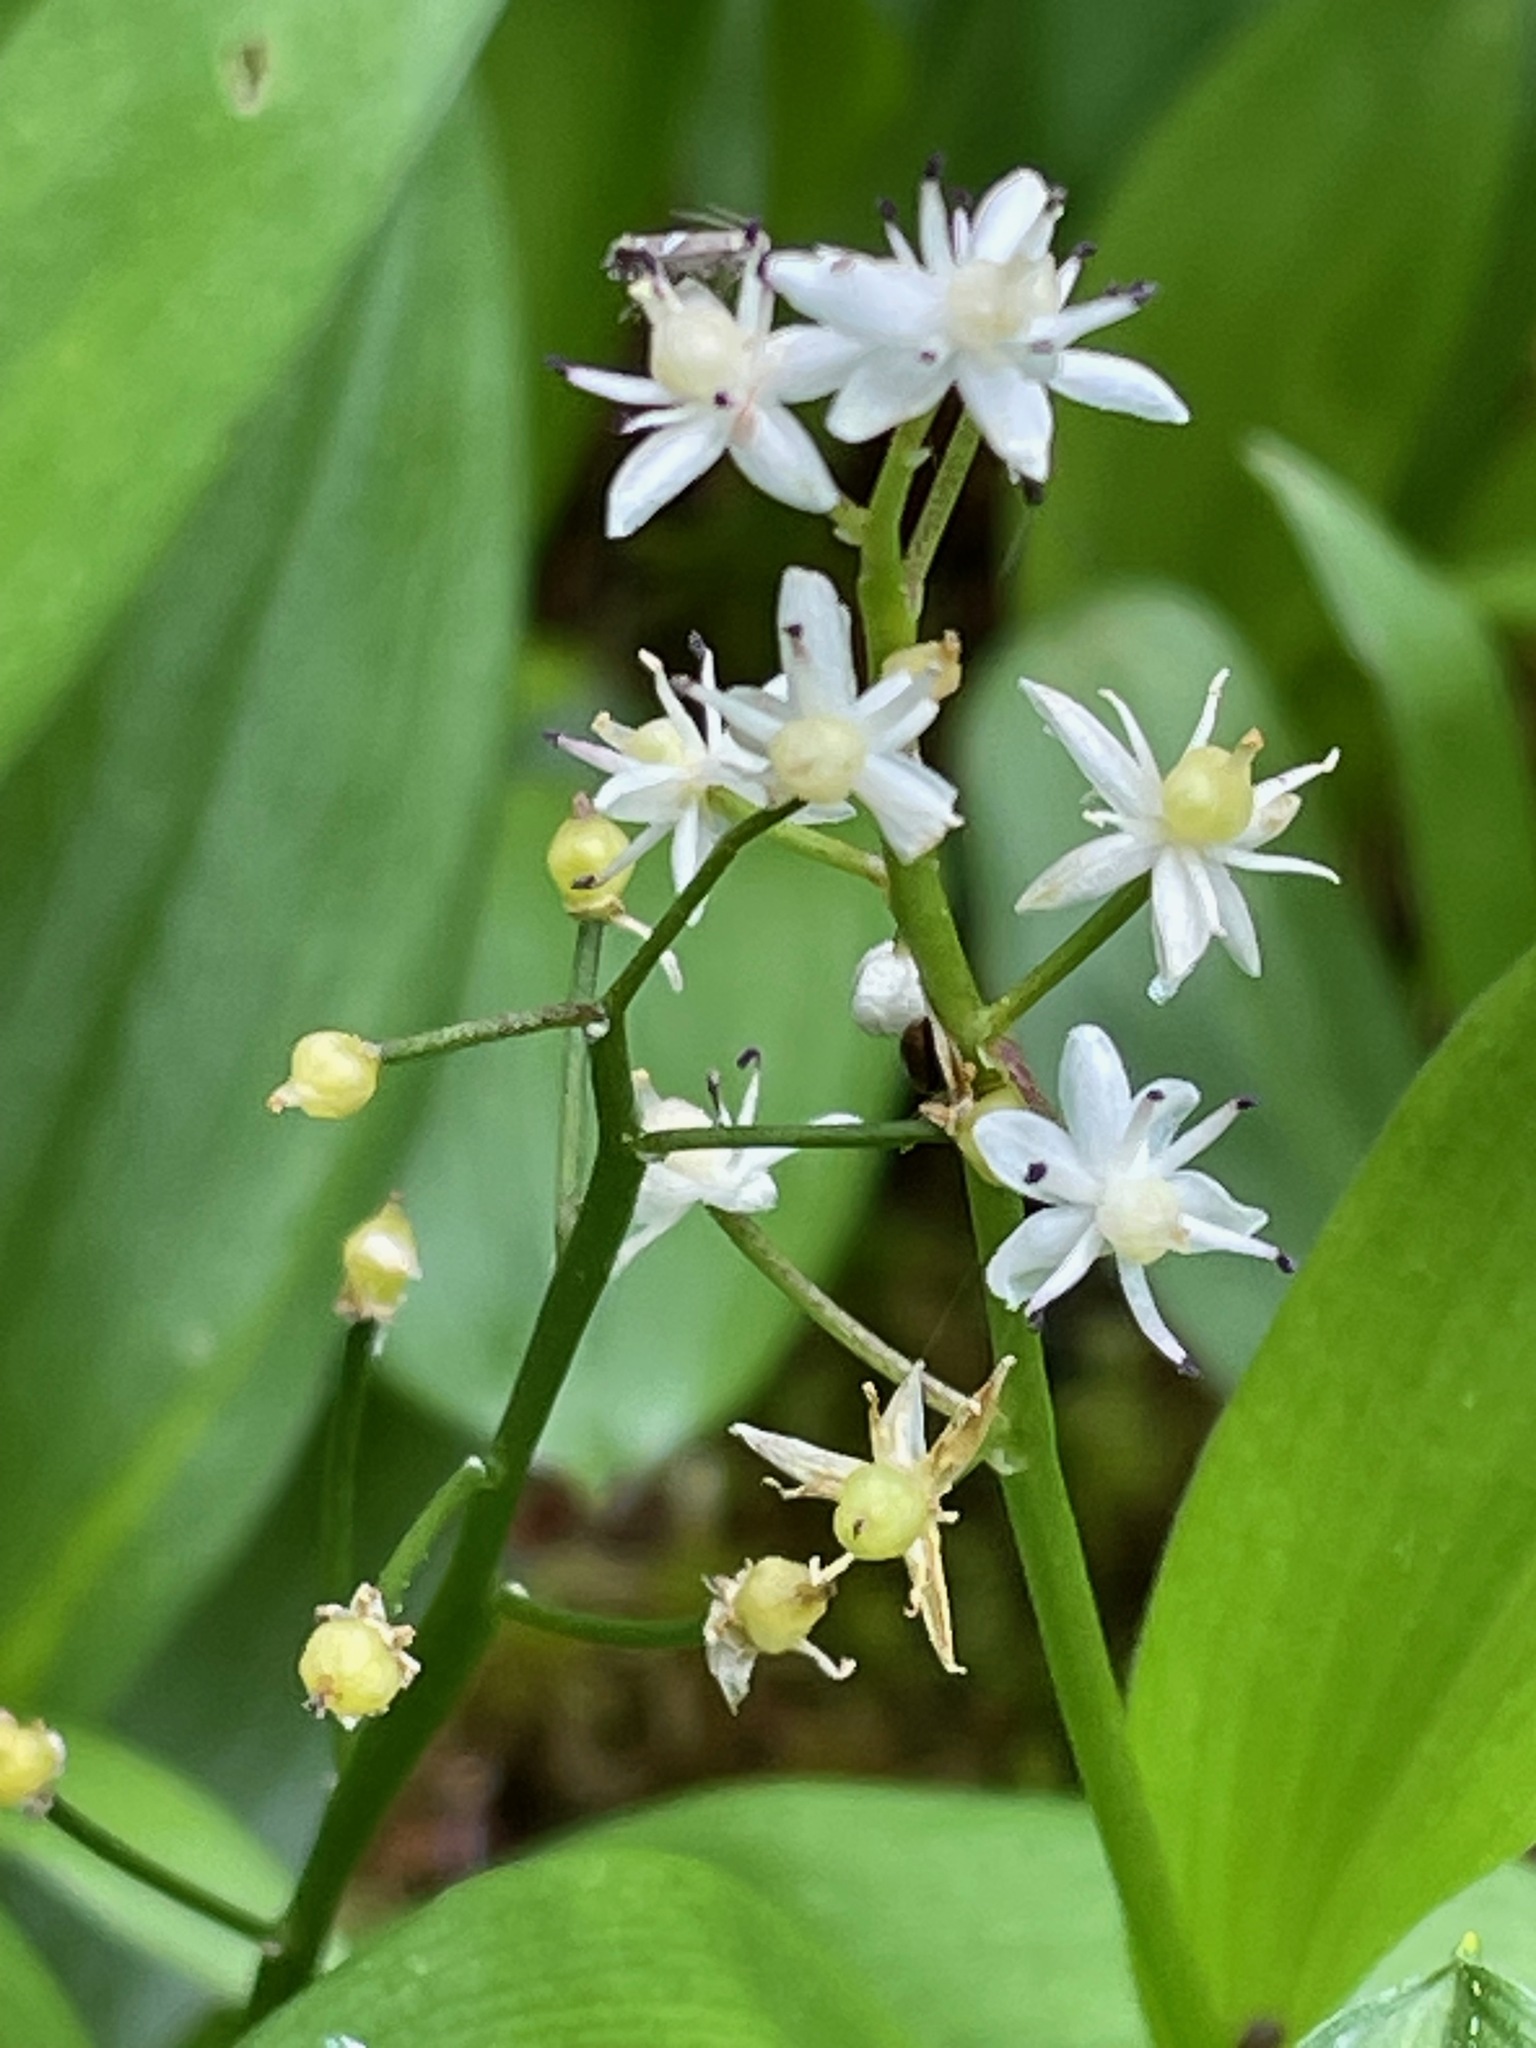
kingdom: Plantae
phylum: Tracheophyta
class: Liliopsida
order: Asparagales
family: Asparagaceae
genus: Maianthemum
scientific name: Maianthemum trifolium
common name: Swamp false solomon's seal
